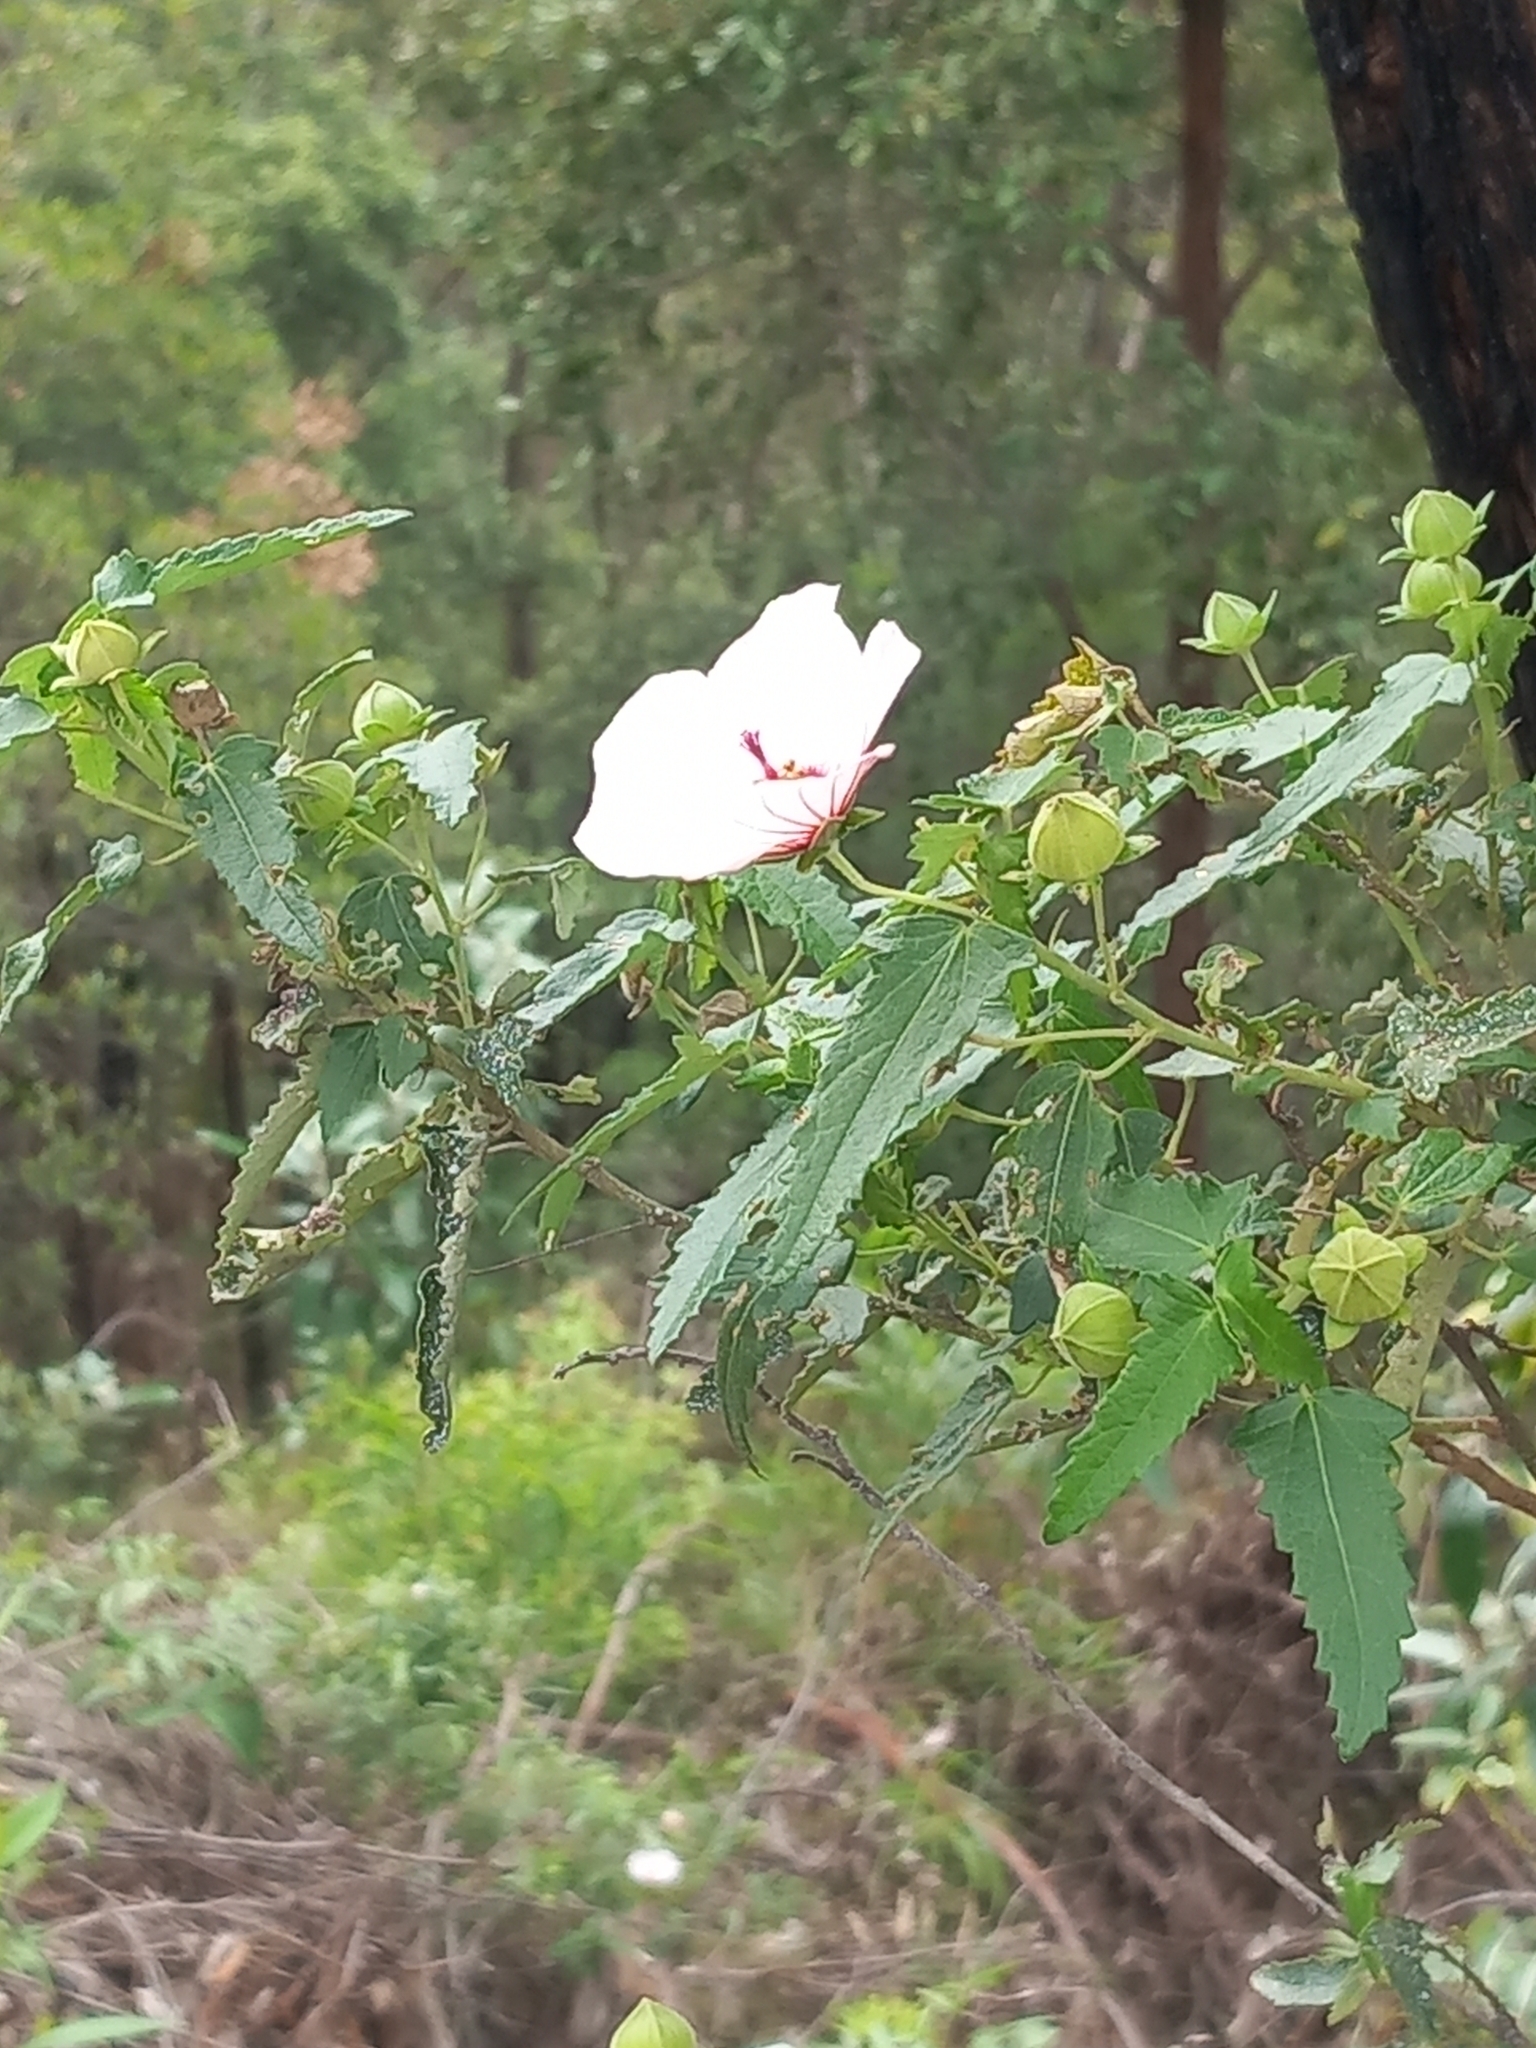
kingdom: Plantae
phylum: Tracheophyta
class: Magnoliopsida
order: Malvales
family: Malvaceae
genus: Pavonia
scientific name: Pavonia hastata
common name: Spearleaf swampmallow
